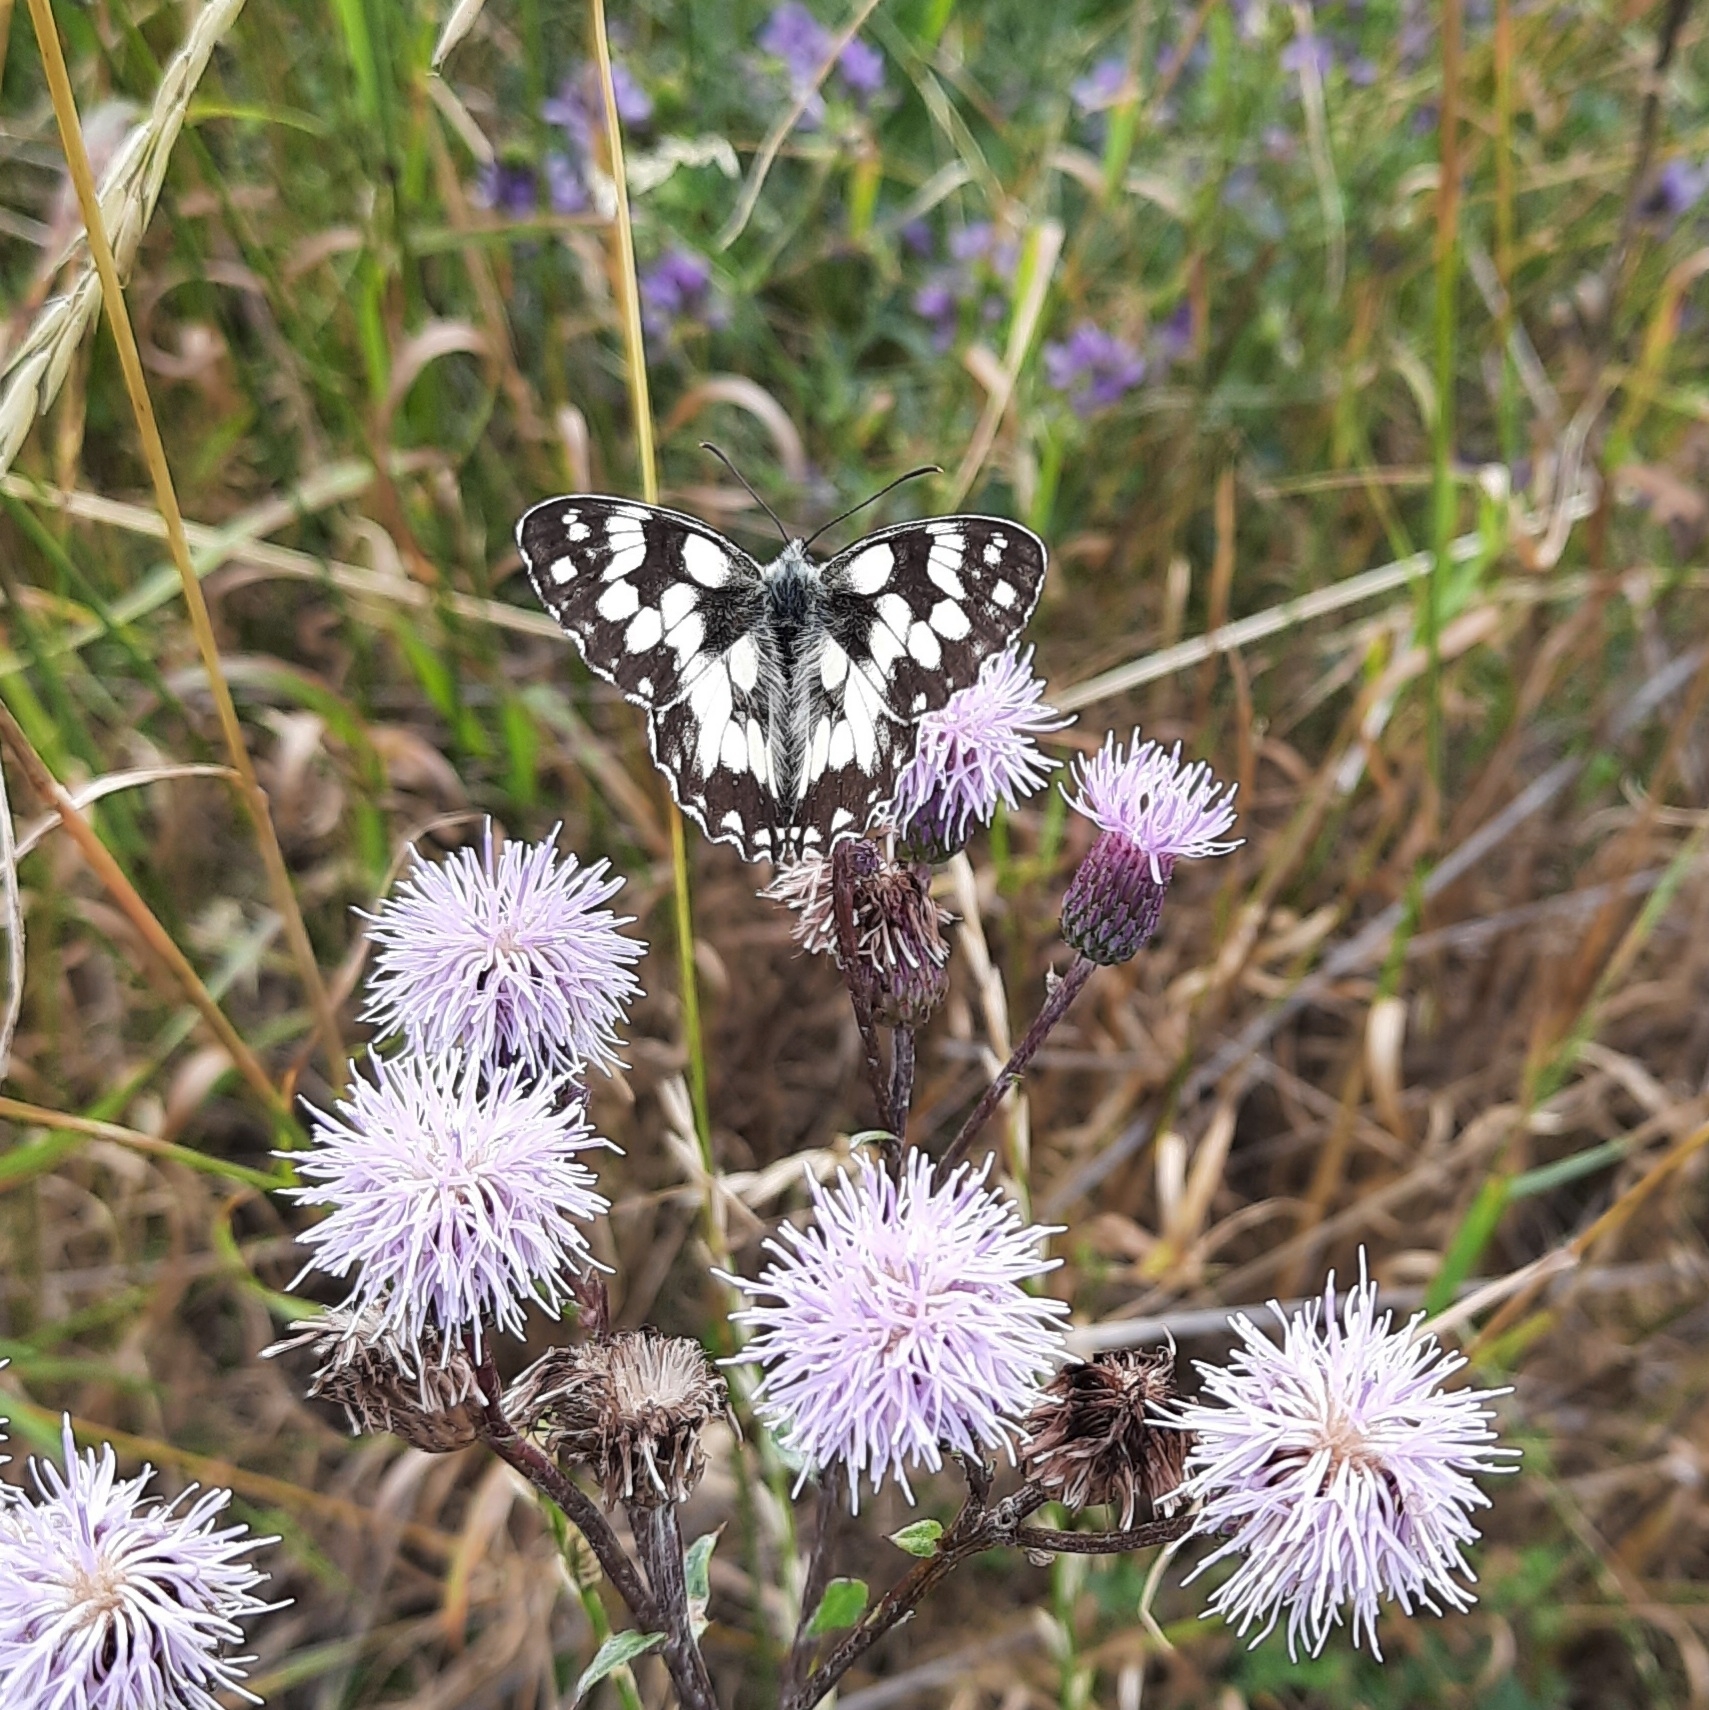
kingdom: Animalia
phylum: Arthropoda
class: Insecta
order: Lepidoptera
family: Nymphalidae
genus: Melanargia
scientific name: Melanargia galathea
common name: Marbled white
